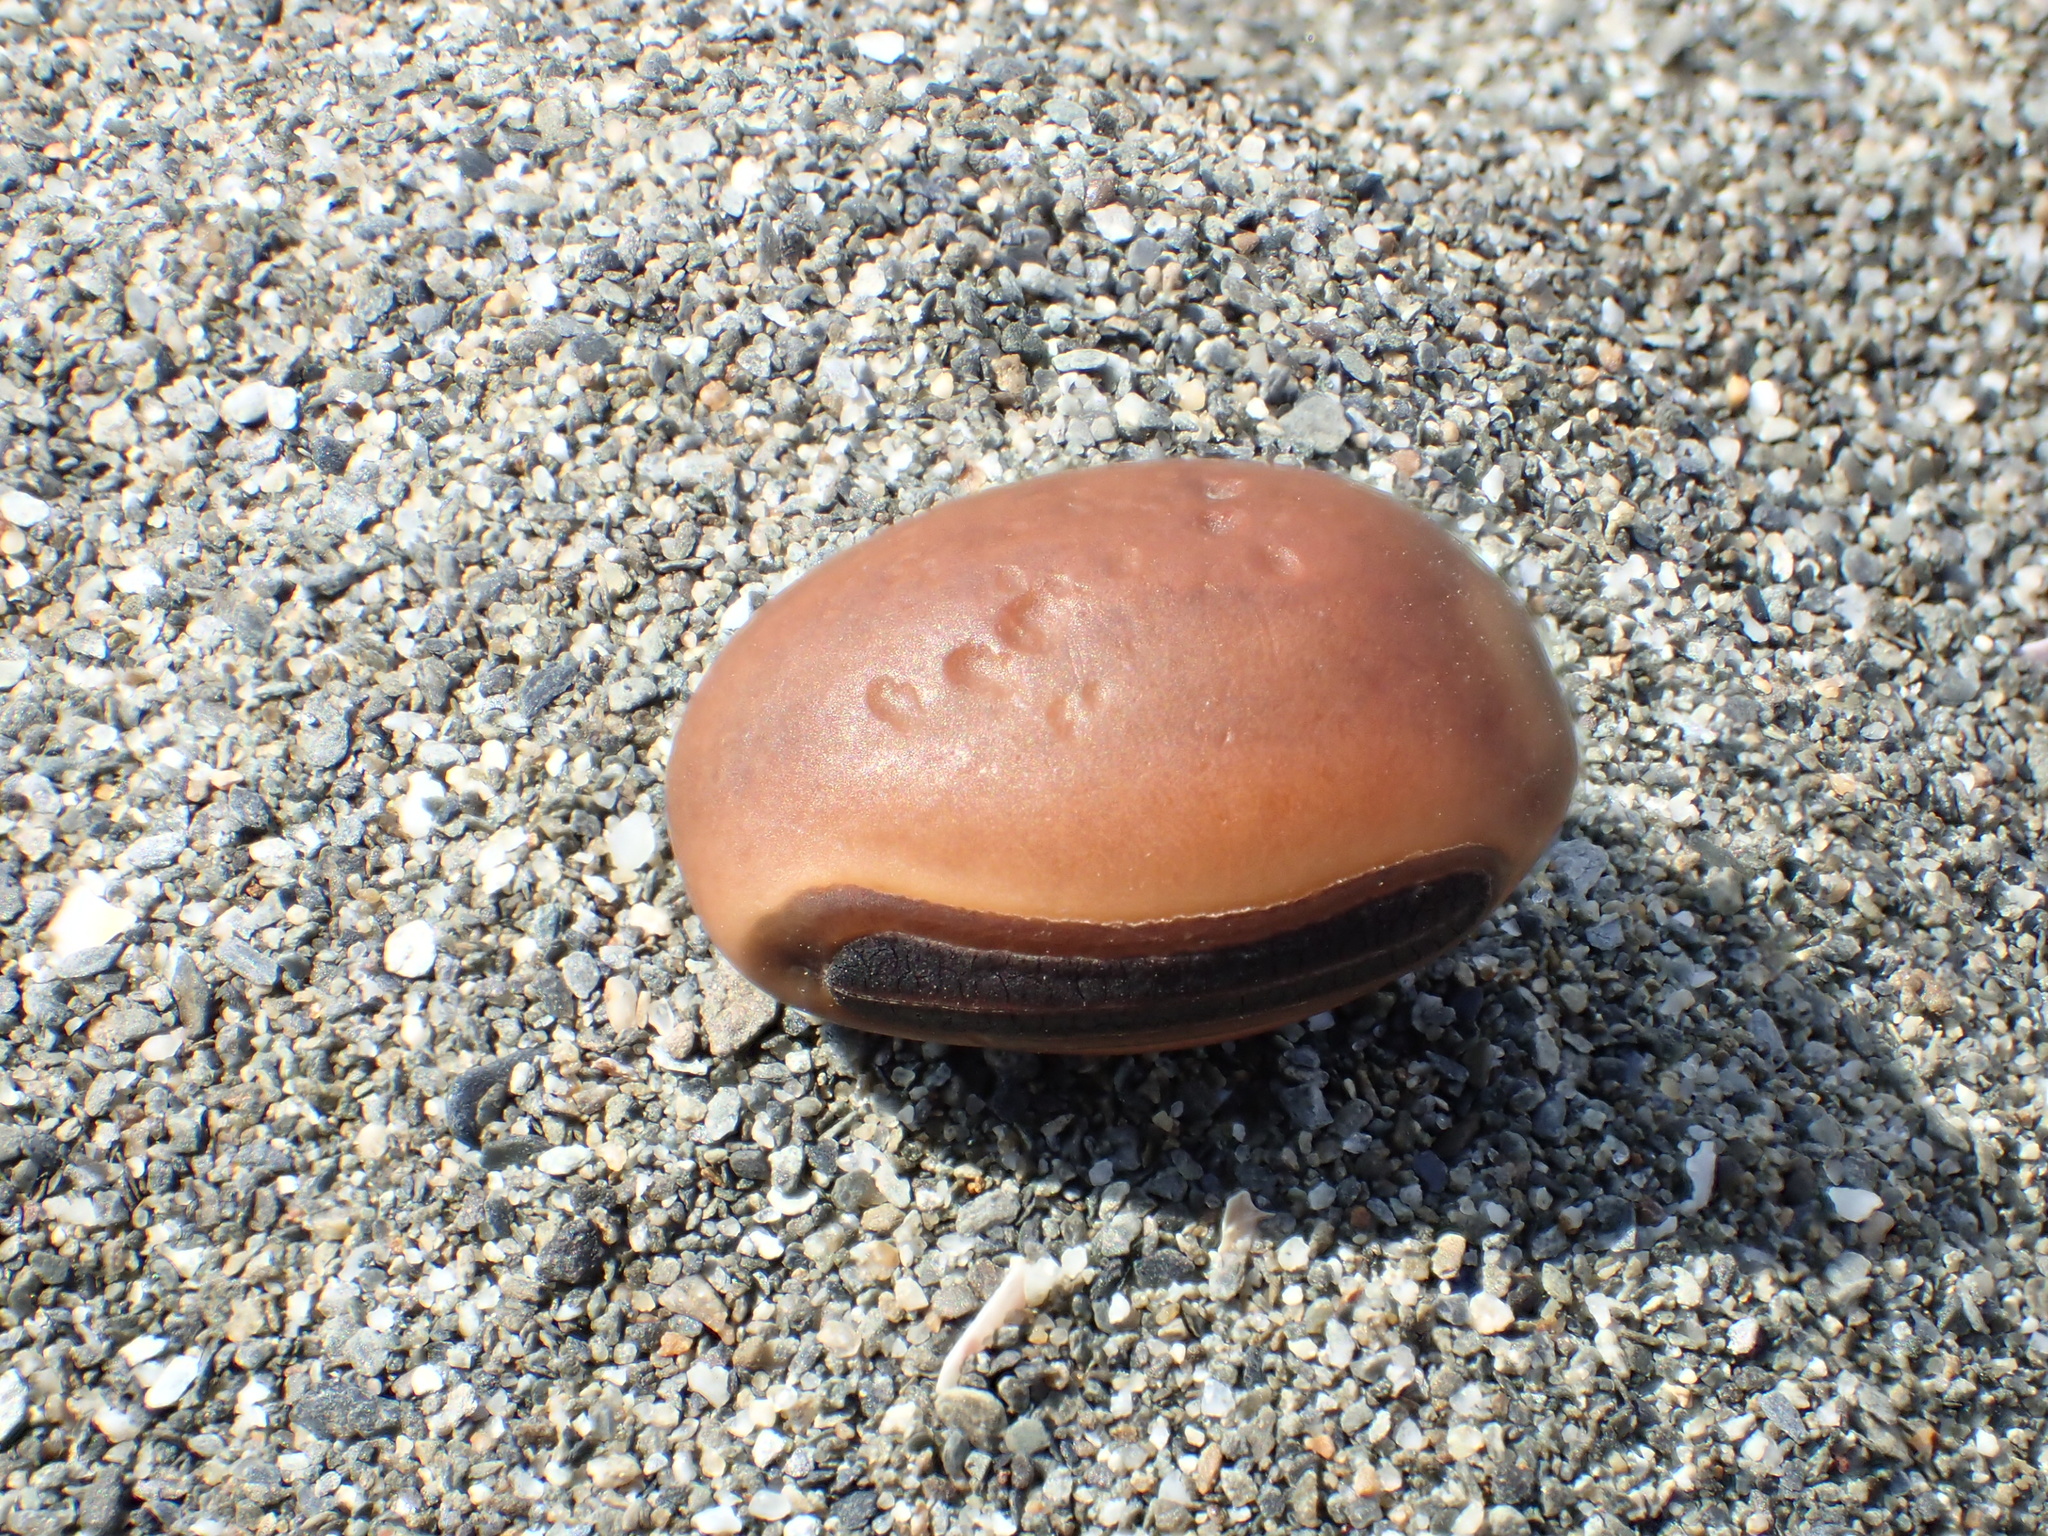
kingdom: Plantae
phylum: Tracheophyta
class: Magnoliopsida
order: Fabales
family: Fabaceae
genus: Canavalia
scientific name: Canavalia rosea
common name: Beach-bean
